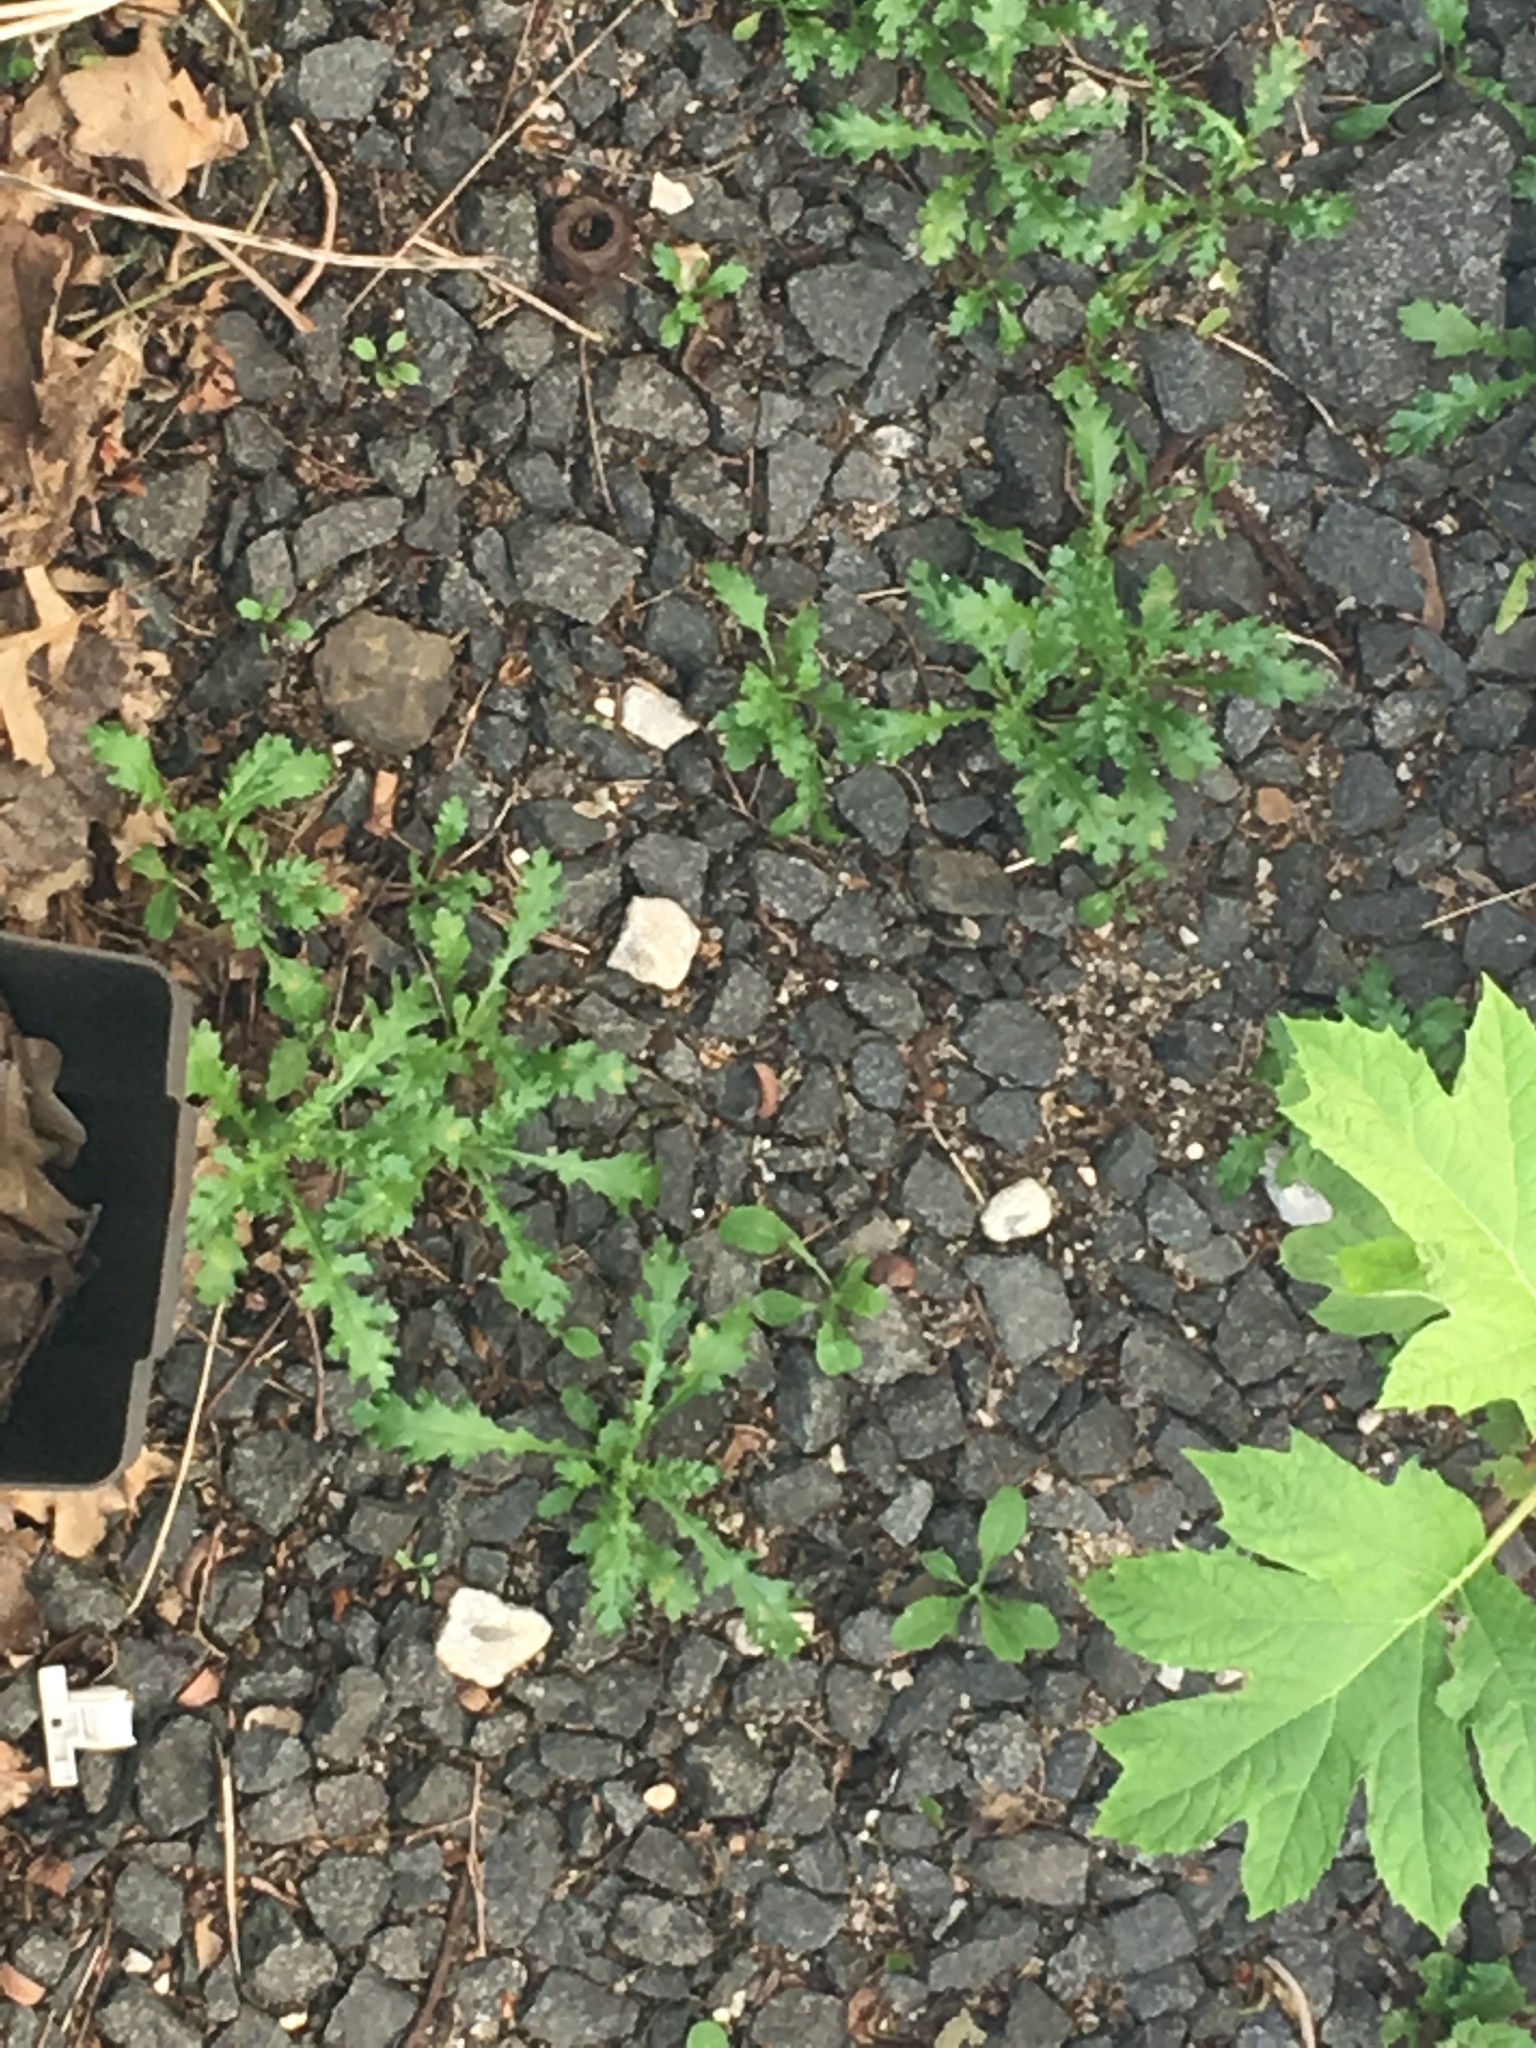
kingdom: Plantae
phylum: Tracheophyta
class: Magnoliopsida
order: Asterales
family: Asteraceae
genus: Senecio
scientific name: Senecio vulgaris
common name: Old-man-in-the-spring
